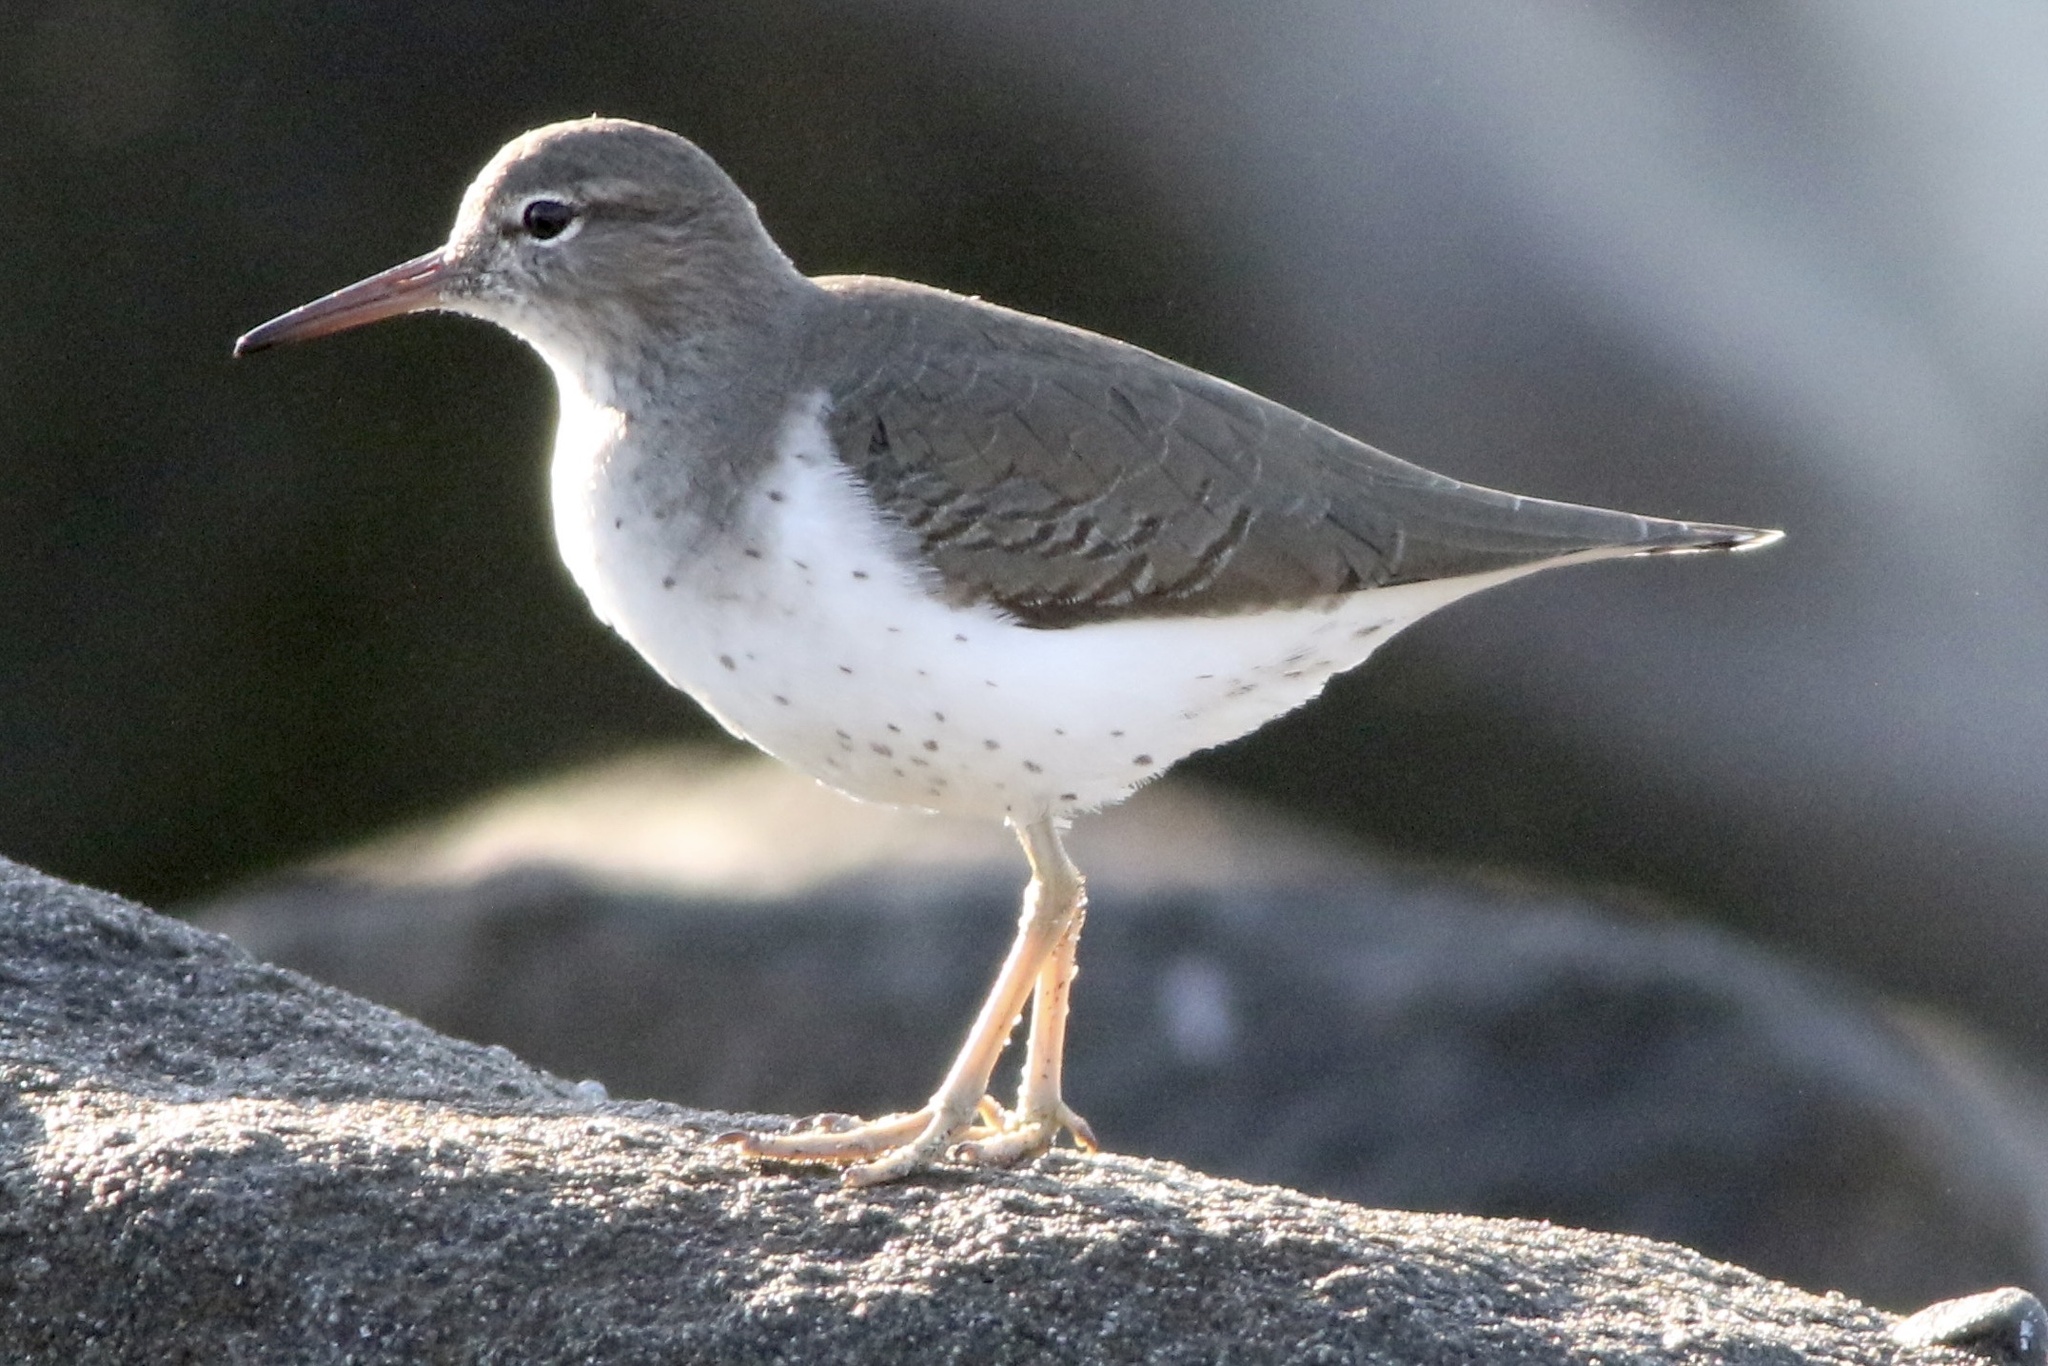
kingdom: Animalia
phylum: Chordata
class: Aves
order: Charadriiformes
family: Scolopacidae
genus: Actitis
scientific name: Actitis macularius
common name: Spotted sandpiper
